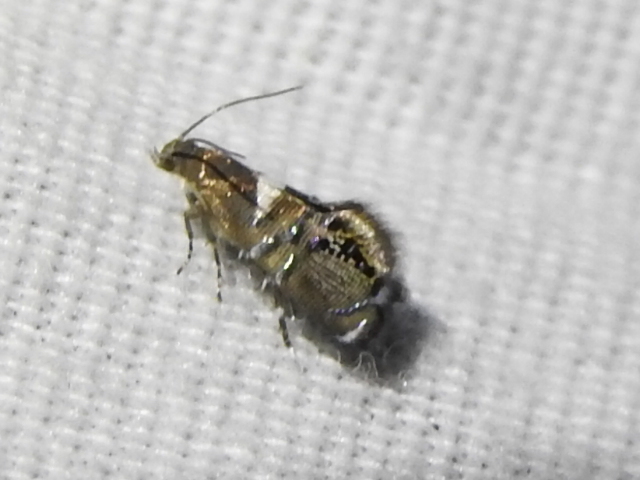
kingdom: Animalia
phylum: Arthropoda
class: Insecta
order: Lepidoptera
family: Glyphipterigidae
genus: Glyphipterix
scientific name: Glyphipterix circumscriptella
